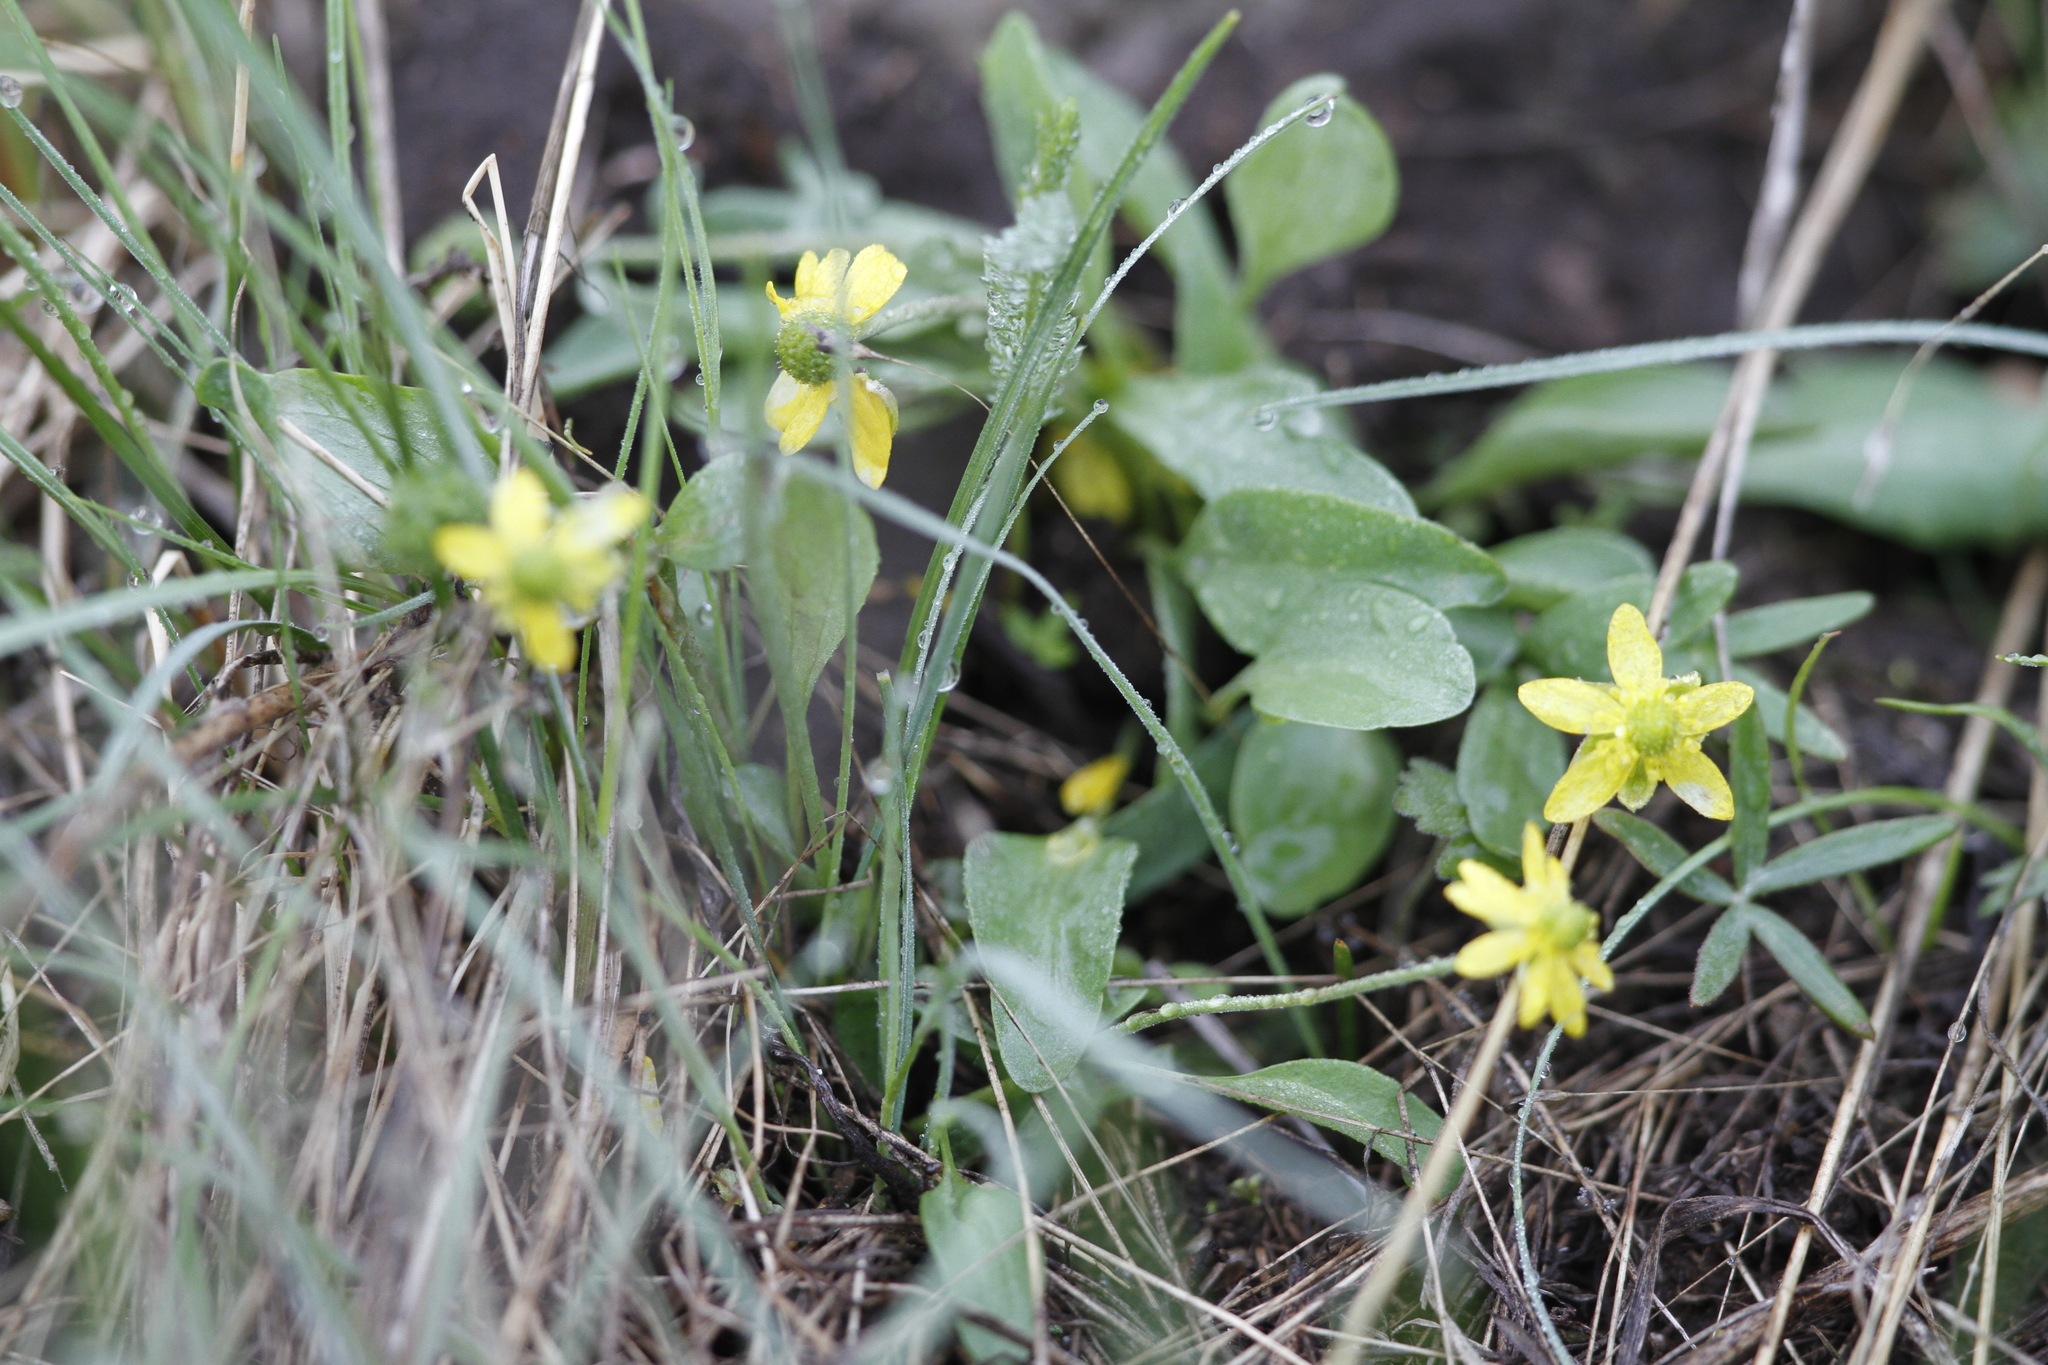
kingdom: Plantae
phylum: Tracheophyta
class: Magnoliopsida
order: Ranunculales
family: Ranunculaceae
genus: Ranunculus
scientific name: Ranunculus glaberrimus
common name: Sagebrush buttercup
